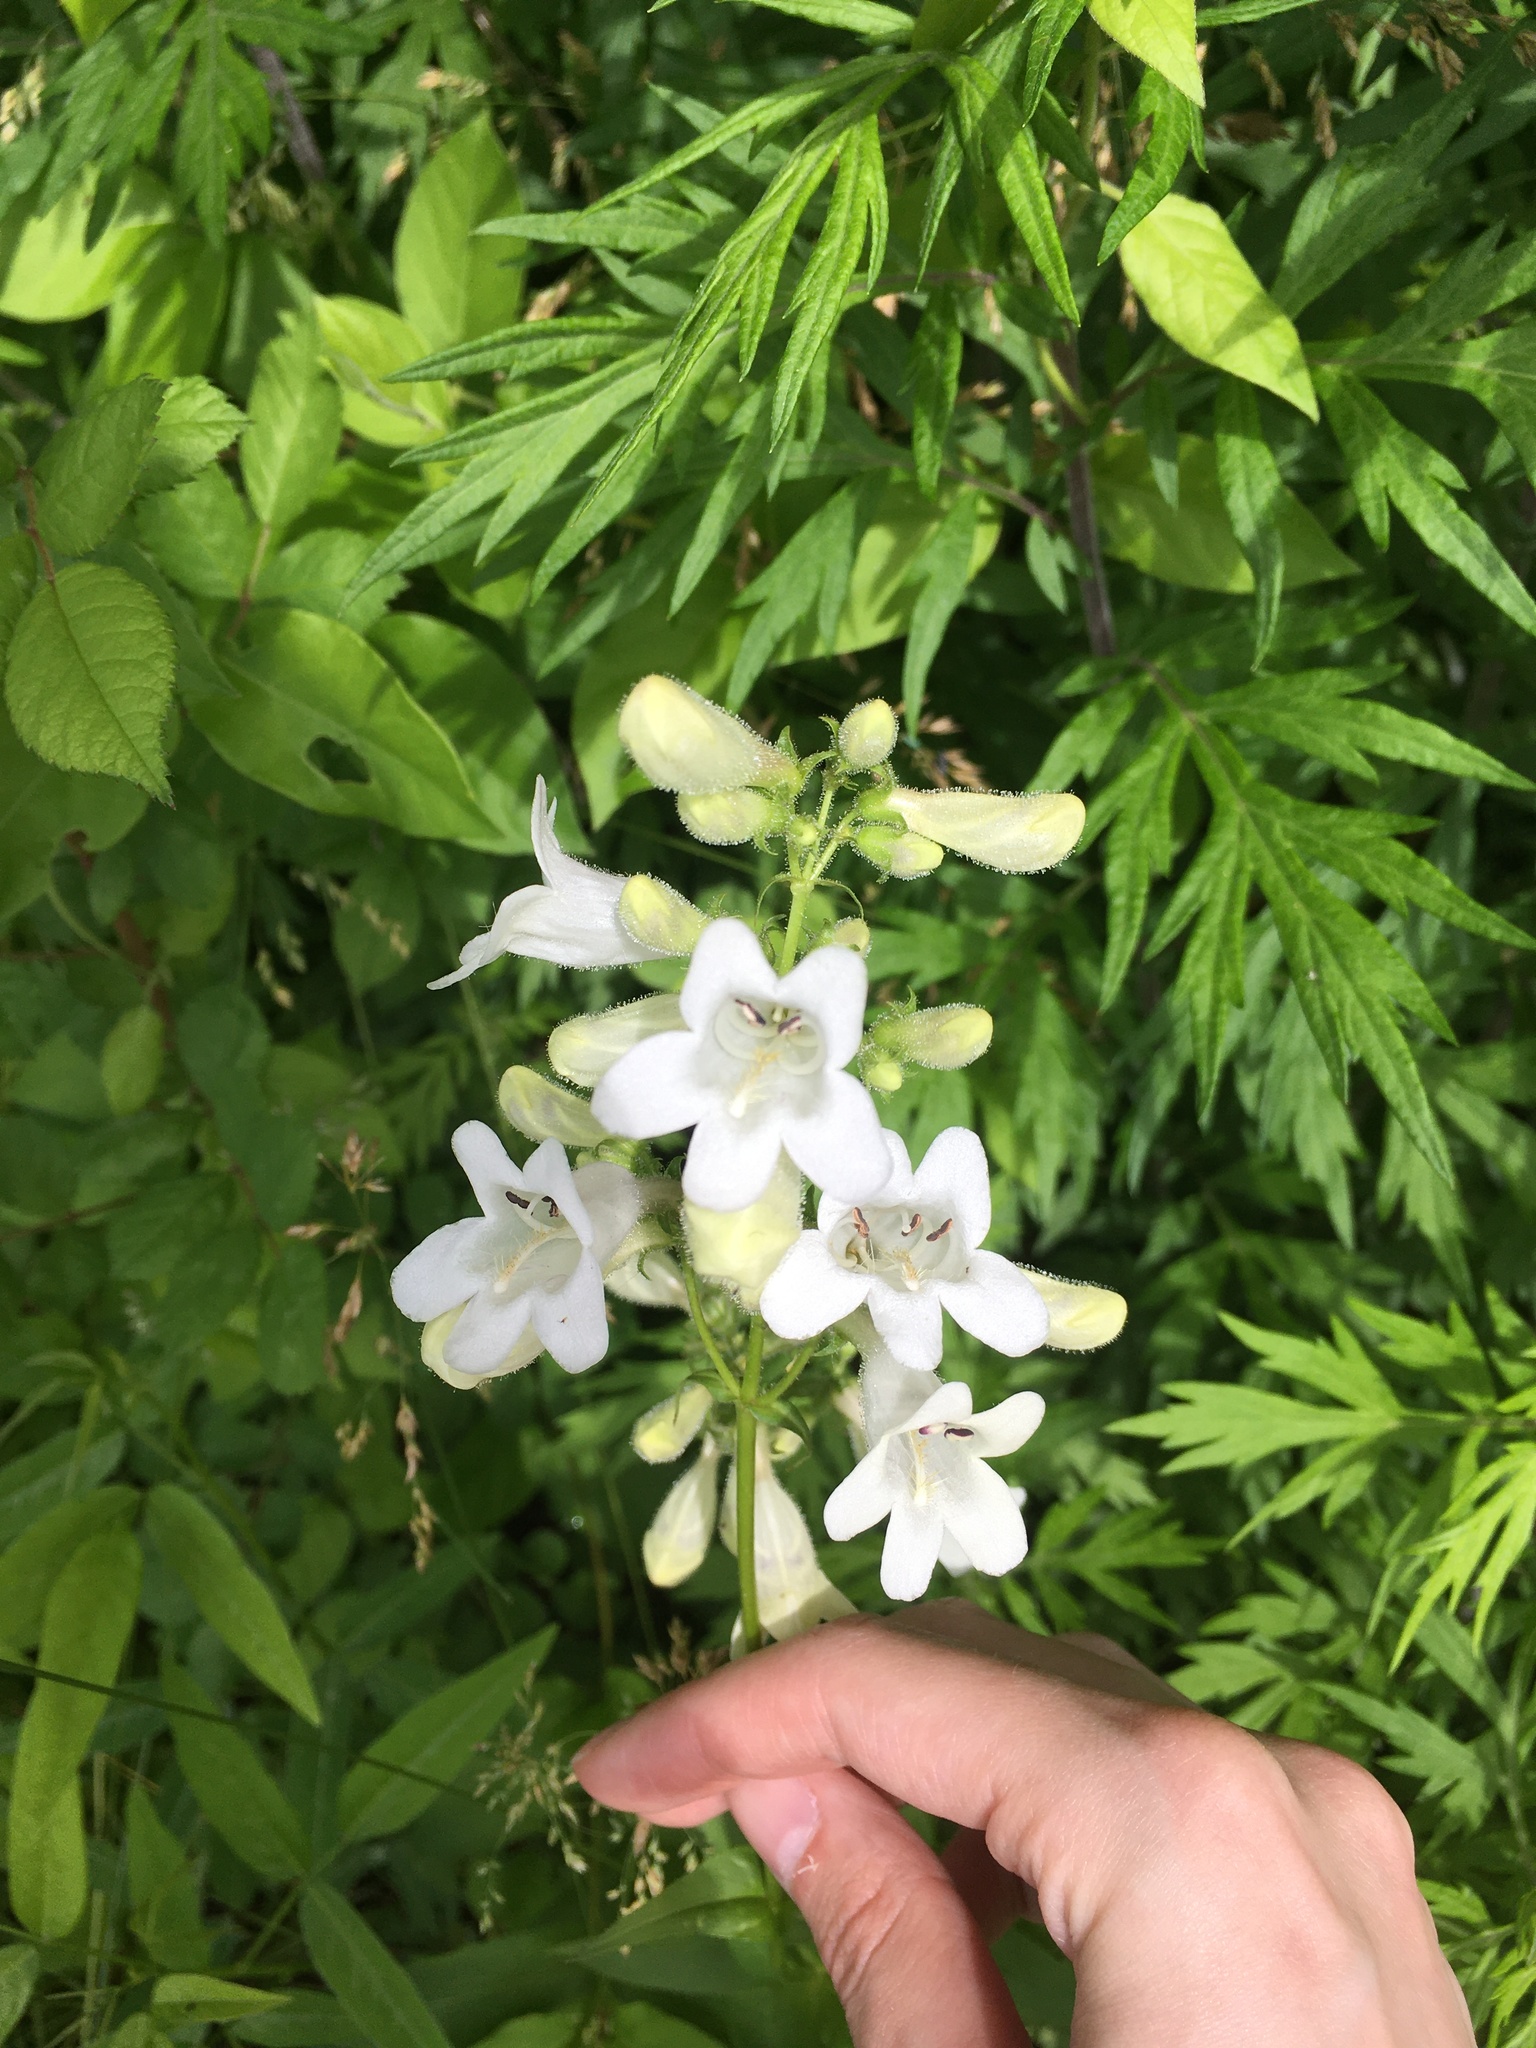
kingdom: Plantae
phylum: Tracheophyta
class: Magnoliopsida
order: Lamiales
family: Plantaginaceae
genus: Penstemon
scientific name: Penstemon digitalis
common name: Foxglove beardtongue
